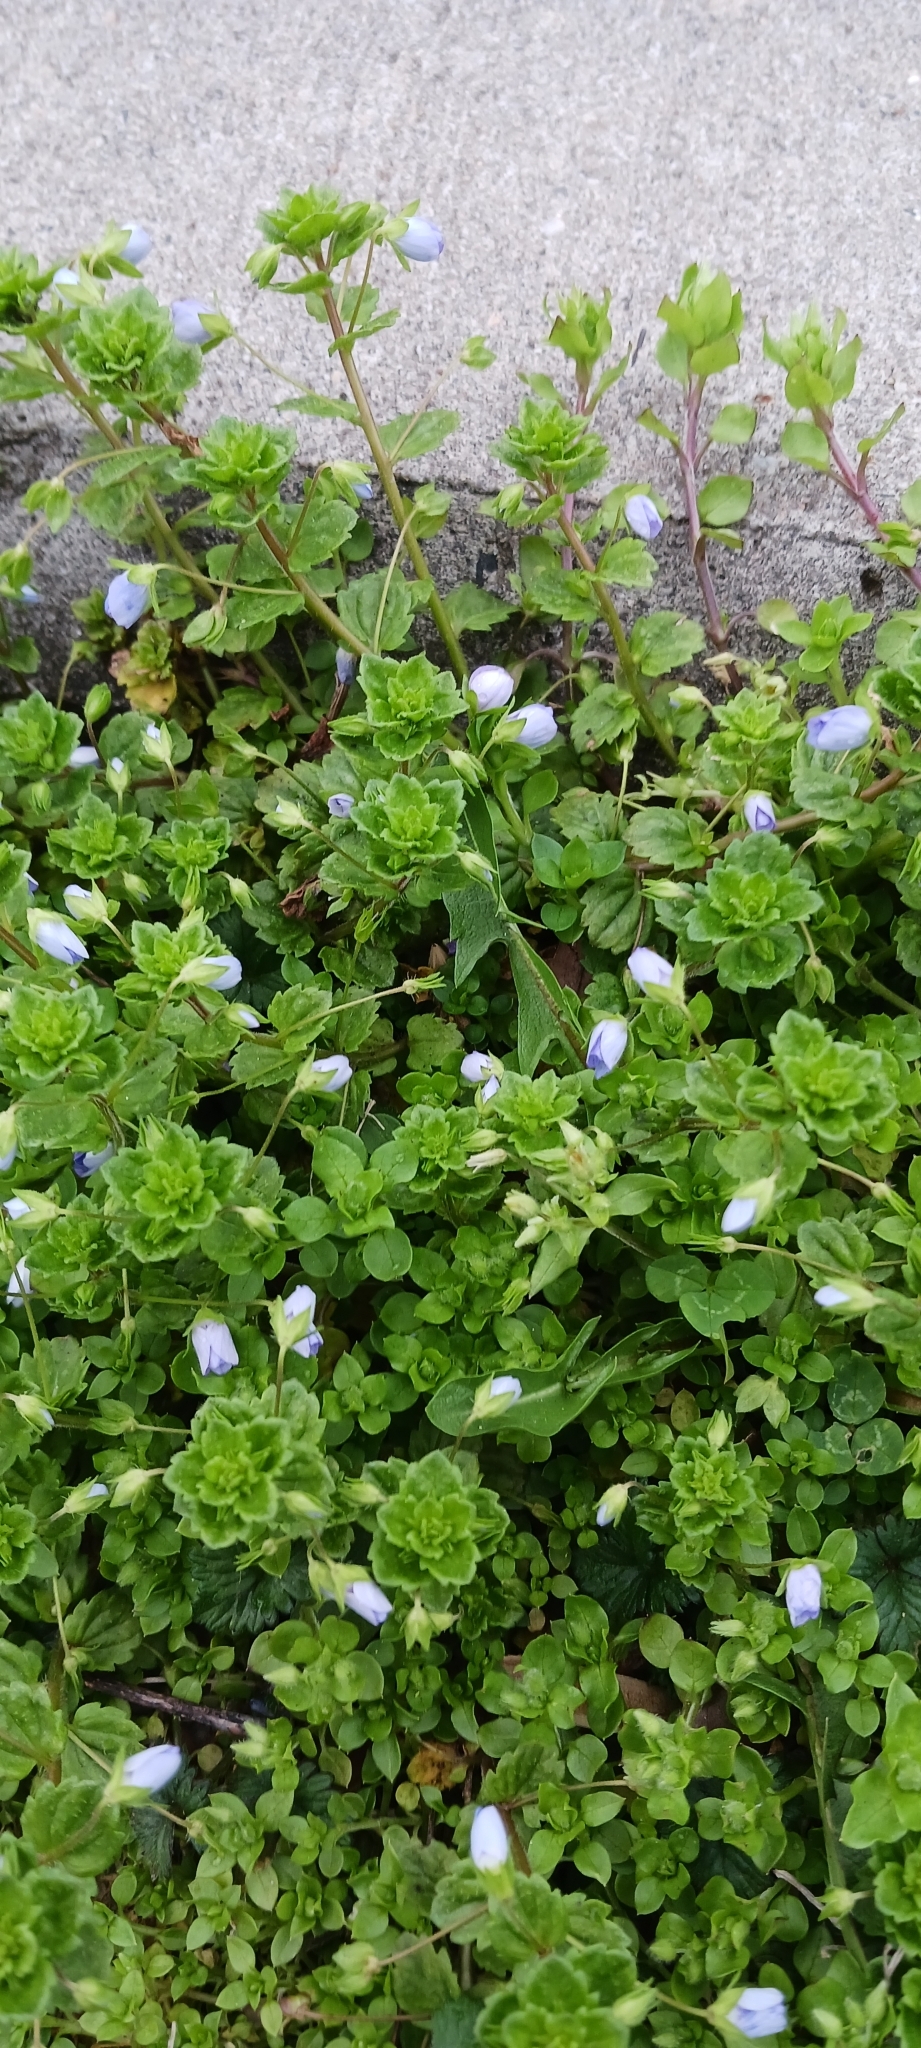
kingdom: Plantae
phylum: Tracheophyta
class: Magnoliopsida
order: Lamiales
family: Plantaginaceae
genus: Veronica
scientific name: Veronica persica
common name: Common field-speedwell
